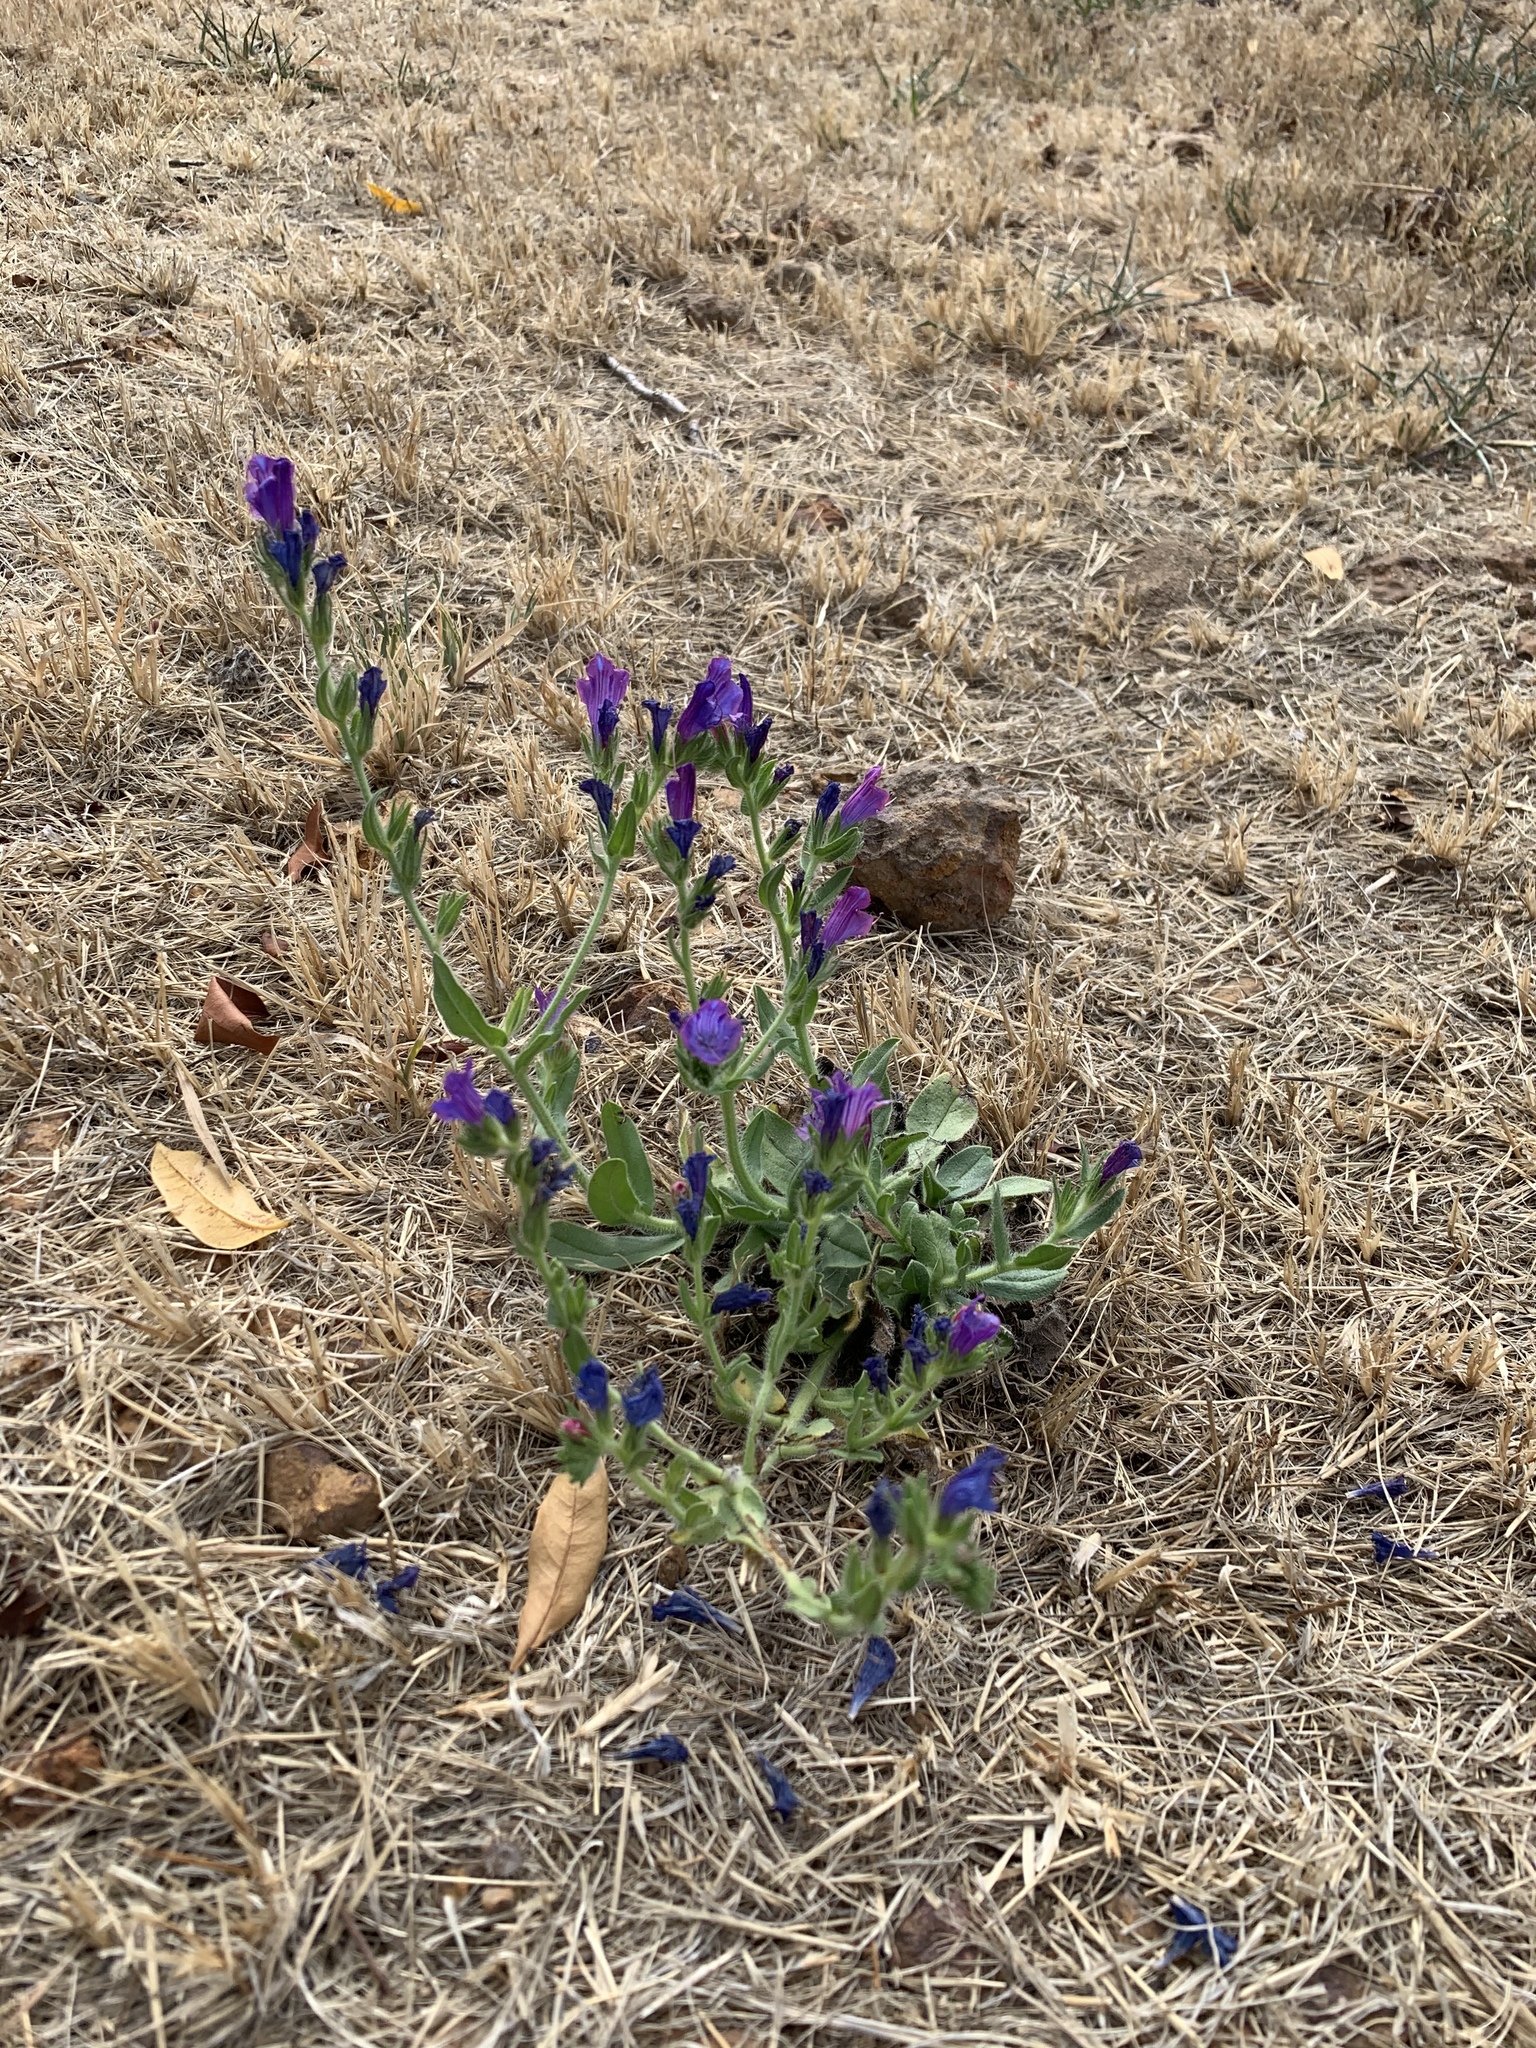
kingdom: Plantae
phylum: Tracheophyta
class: Magnoliopsida
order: Boraginales
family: Boraginaceae
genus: Echium
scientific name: Echium plantagineum
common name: Purple viper's-bugloss
